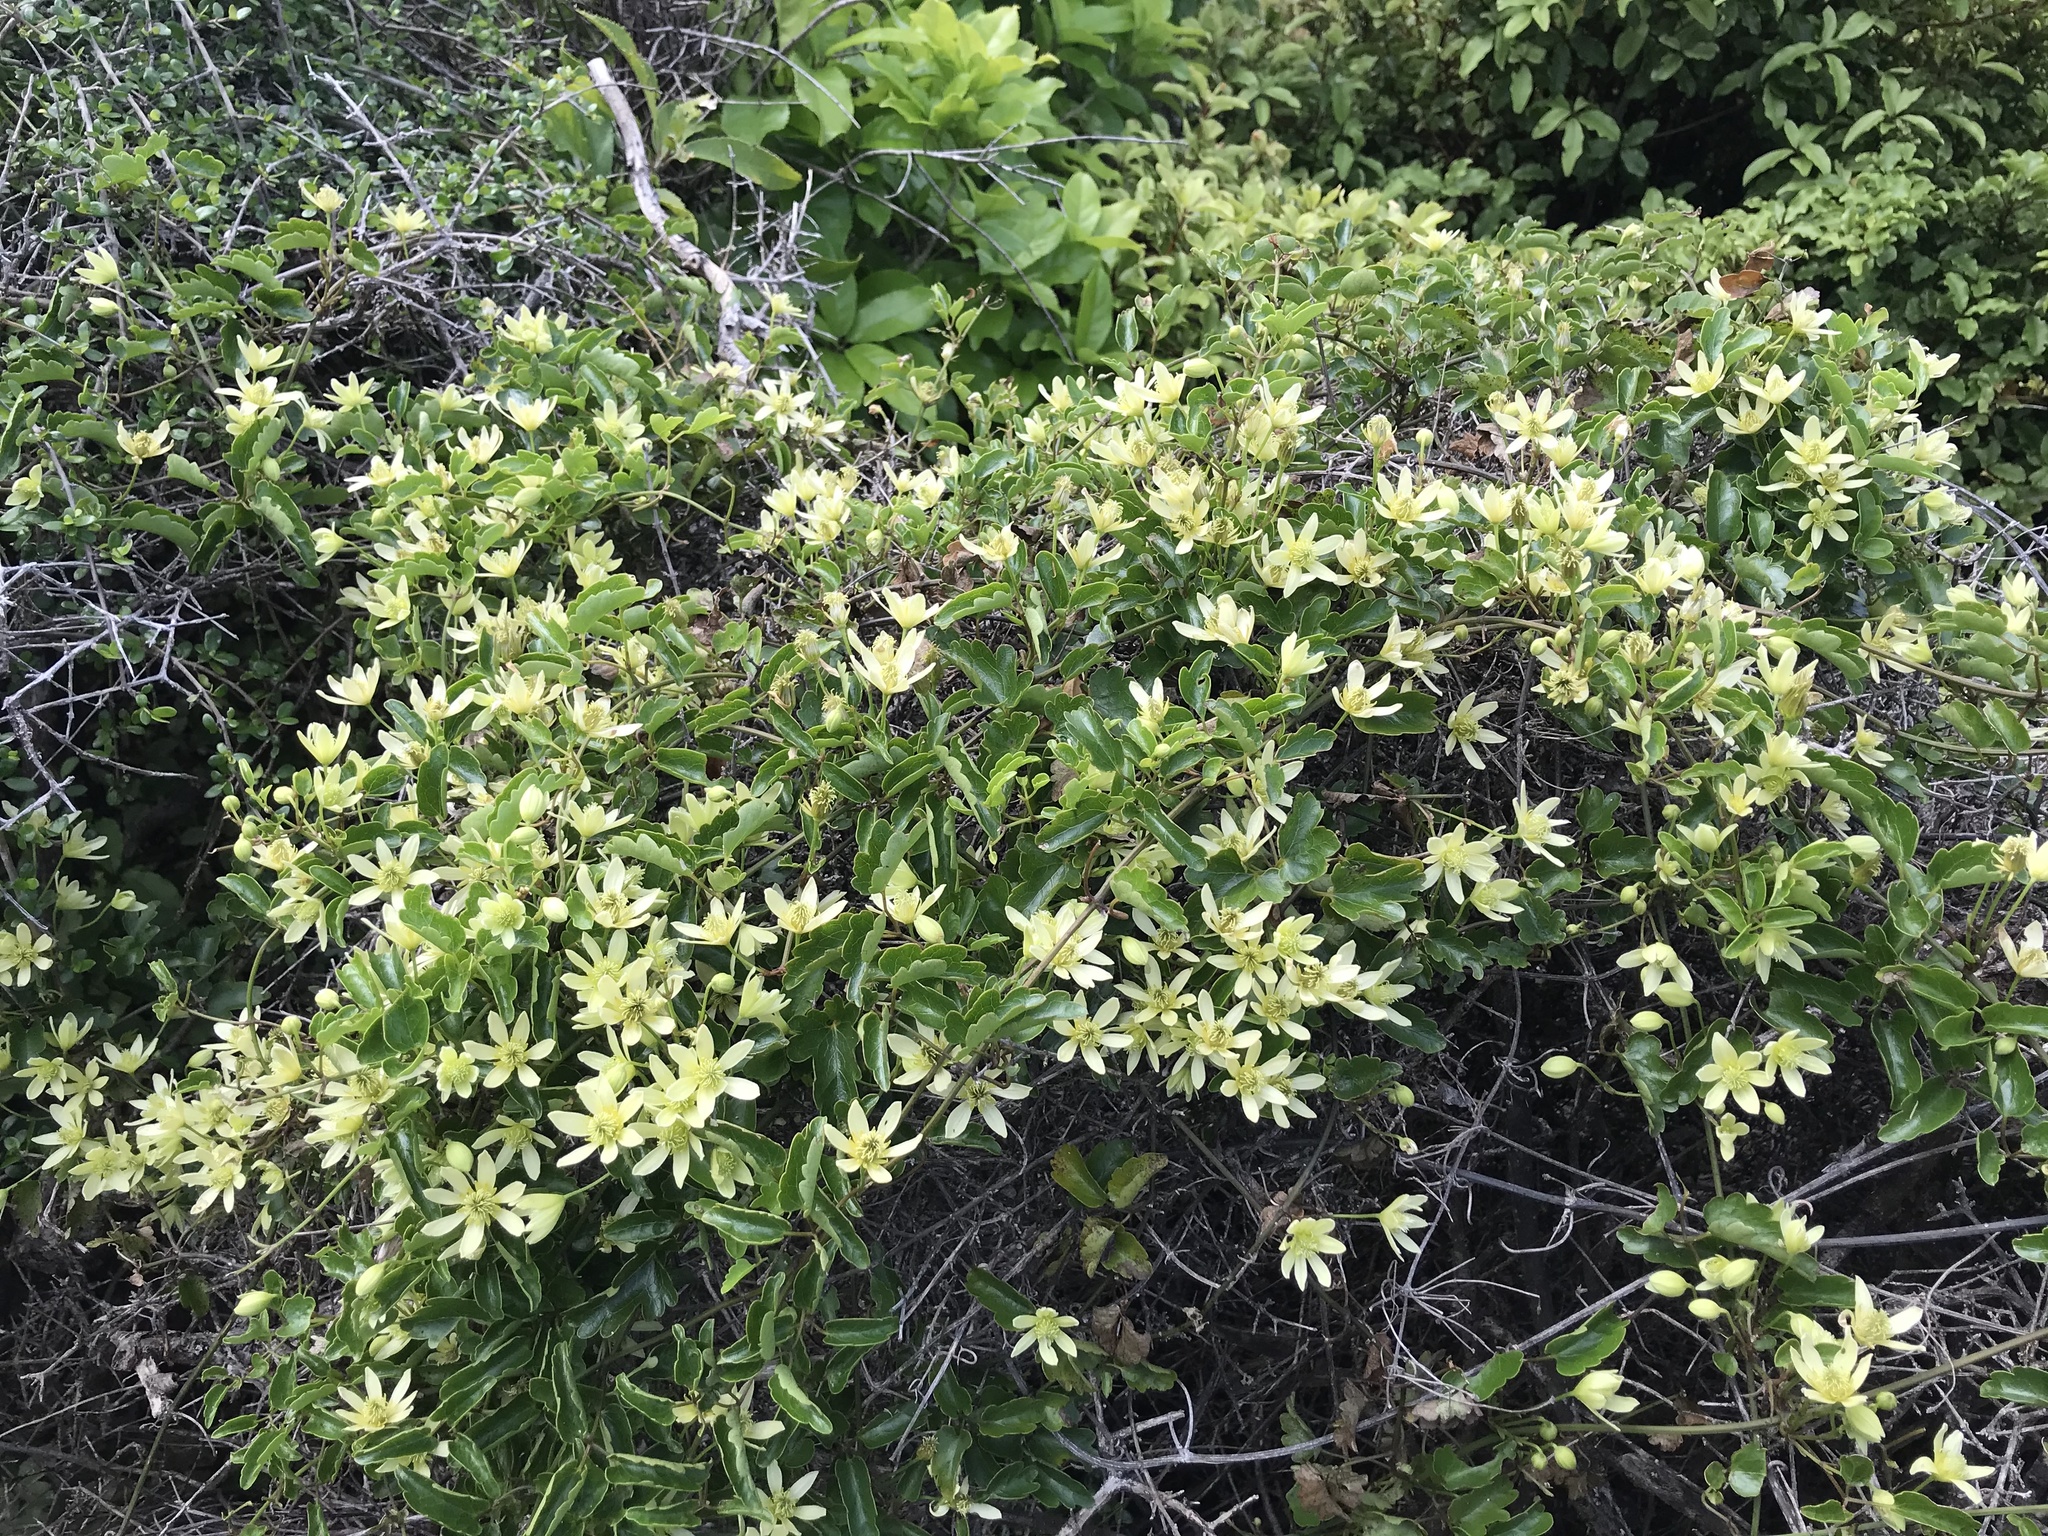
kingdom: Plantae
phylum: Tracheophyta
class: Magnoliopsida
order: Ranunculales
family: Ranunculaceae
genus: Clematis
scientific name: Clematis forsteri
